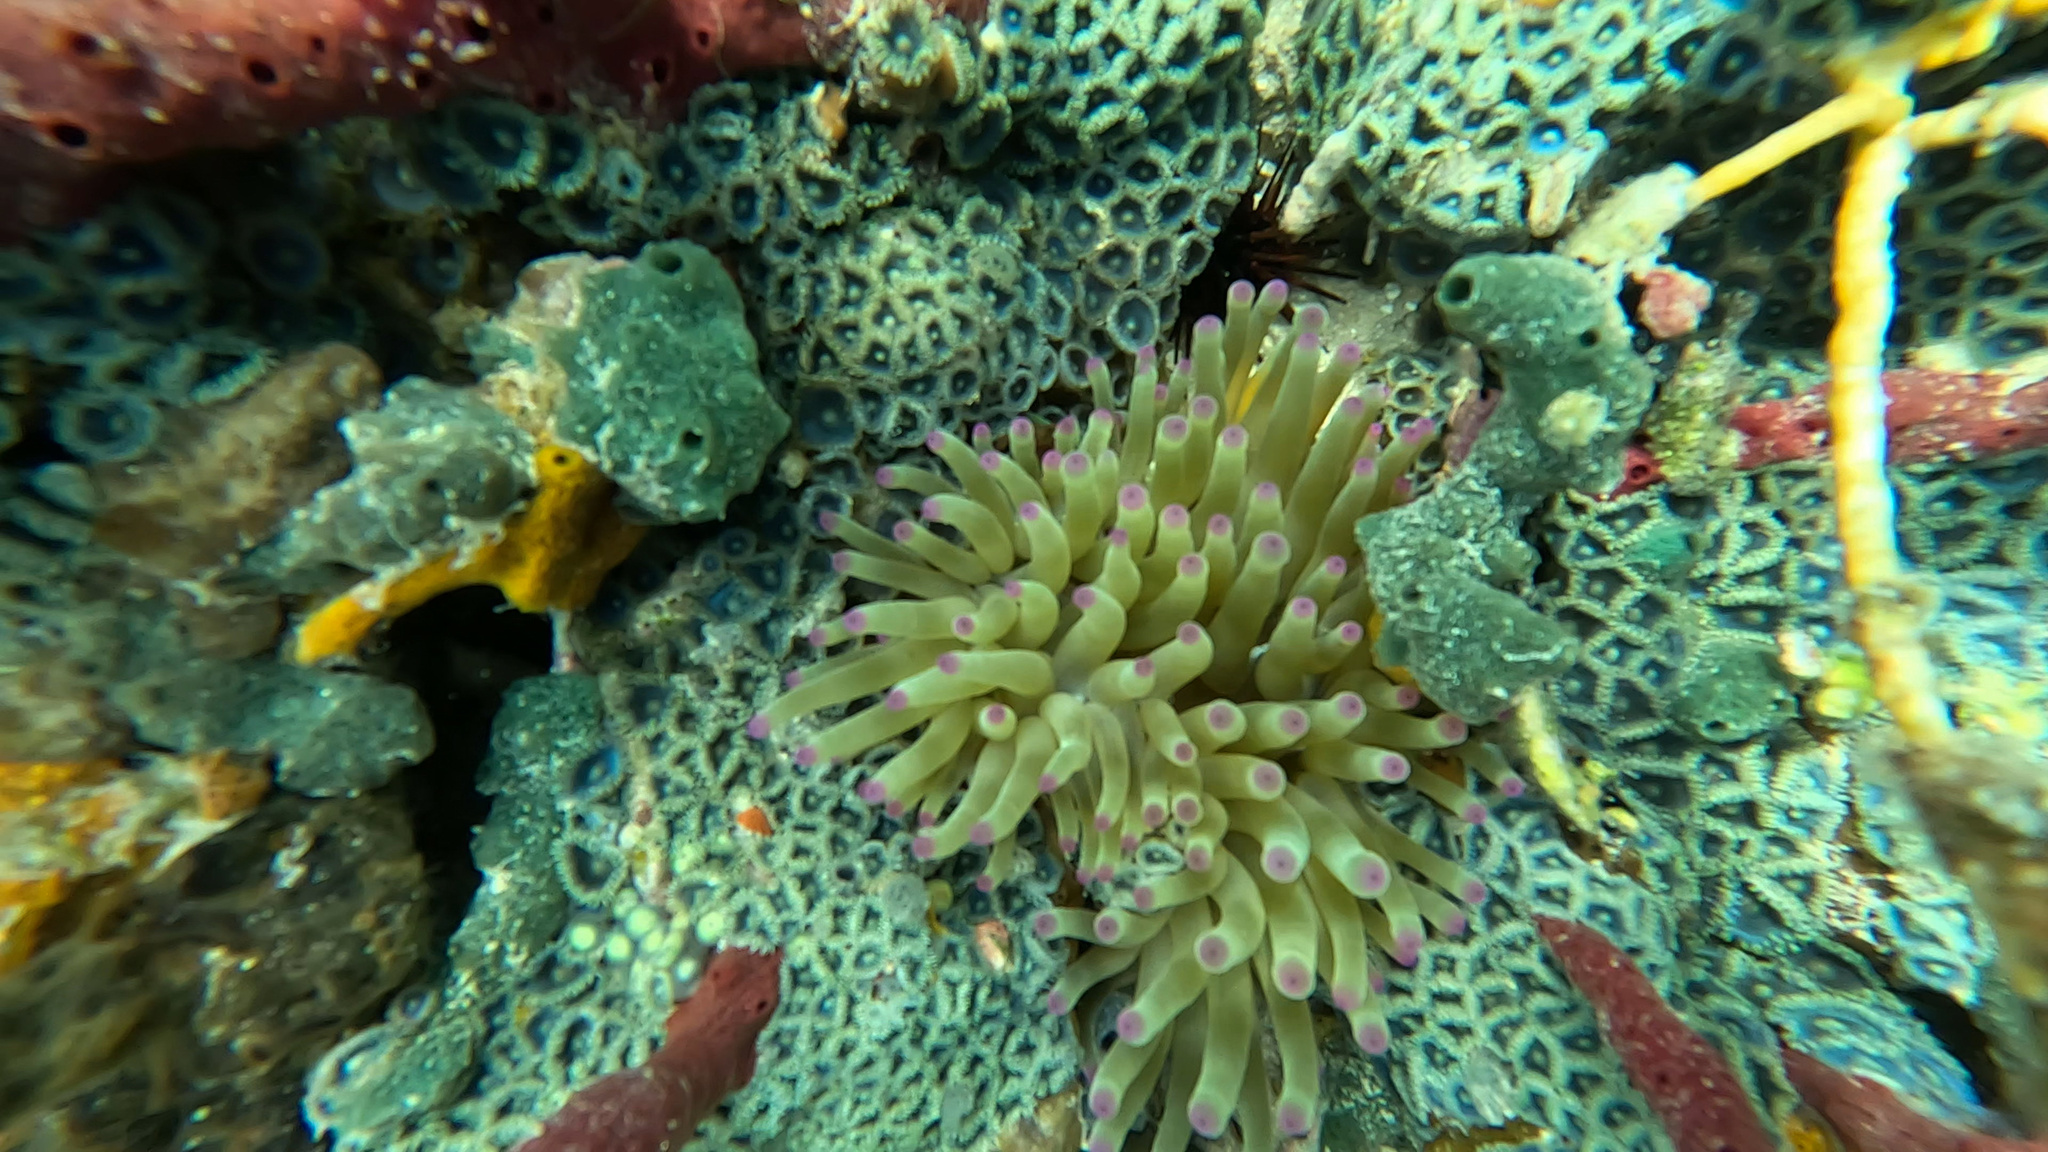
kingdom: Animalia
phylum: Cnidaria
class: Anthozoa
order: Actiniaria
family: Actiniidae
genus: Condylactis
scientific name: Condylactis gigantea
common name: Giant caribbean anemone
